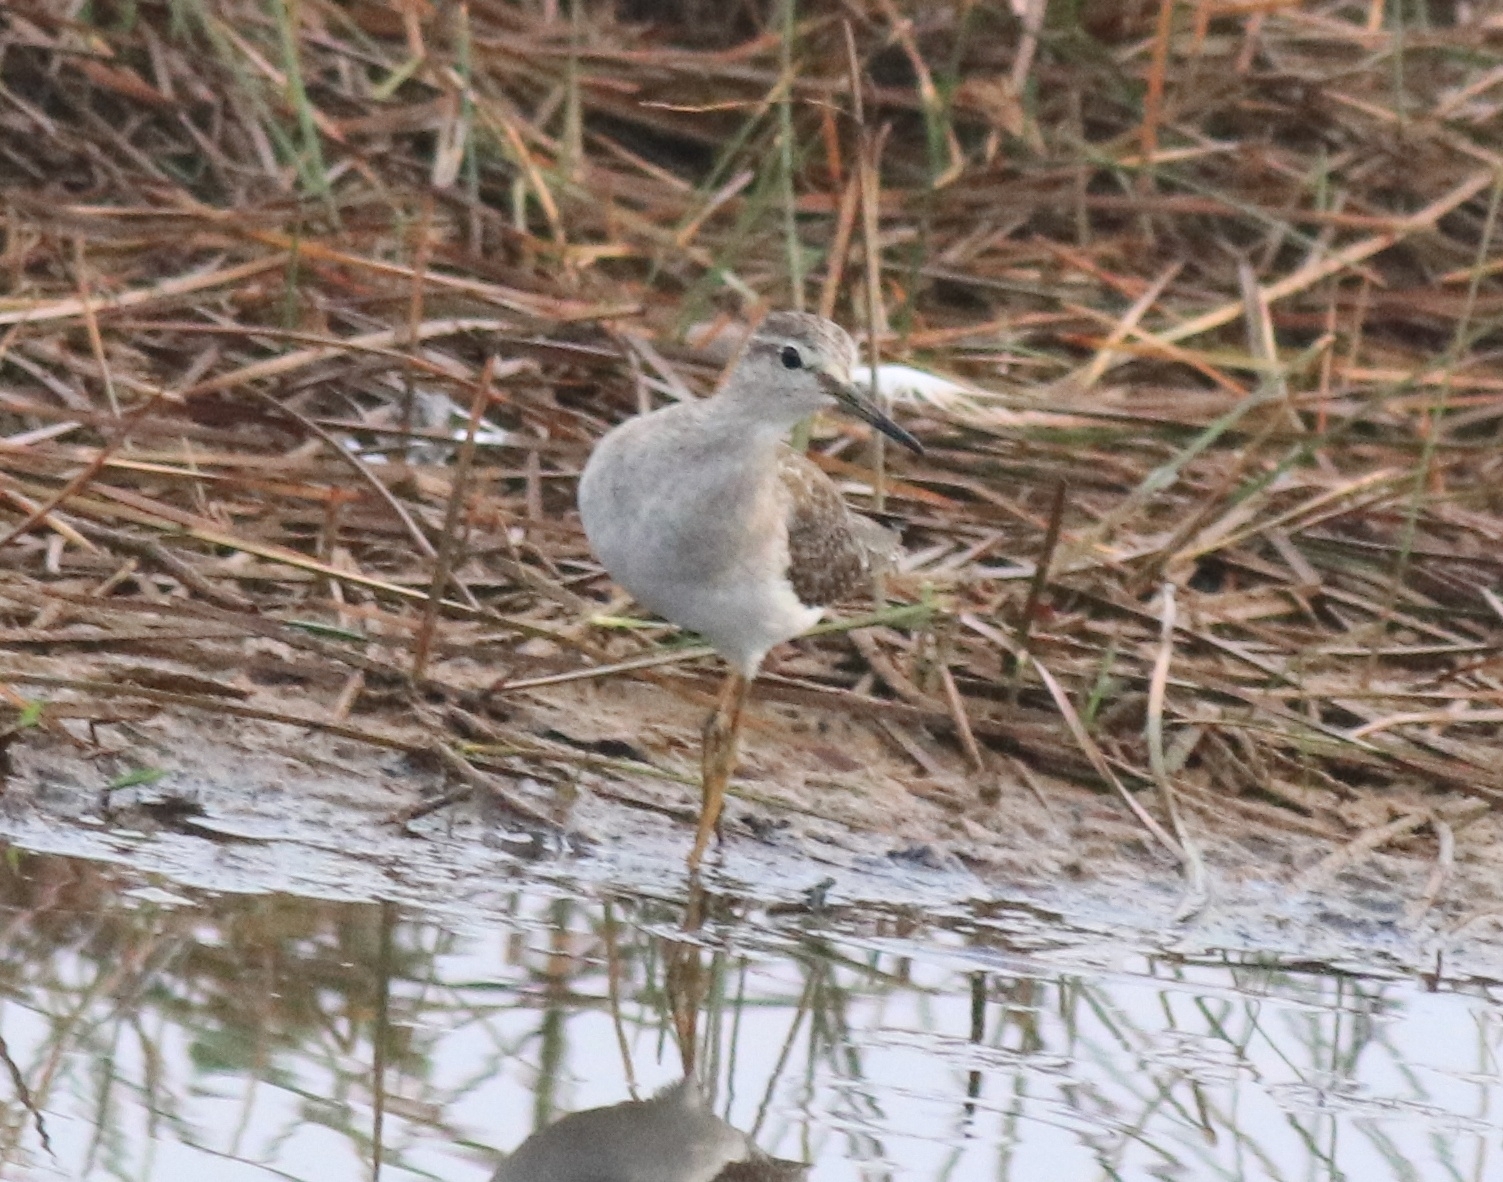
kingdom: Animalia
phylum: Chordata
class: Aves
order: Charadriiformes
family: Scolopacidae
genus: Tringa
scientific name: Tringa glareola
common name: Wood sandpiper
